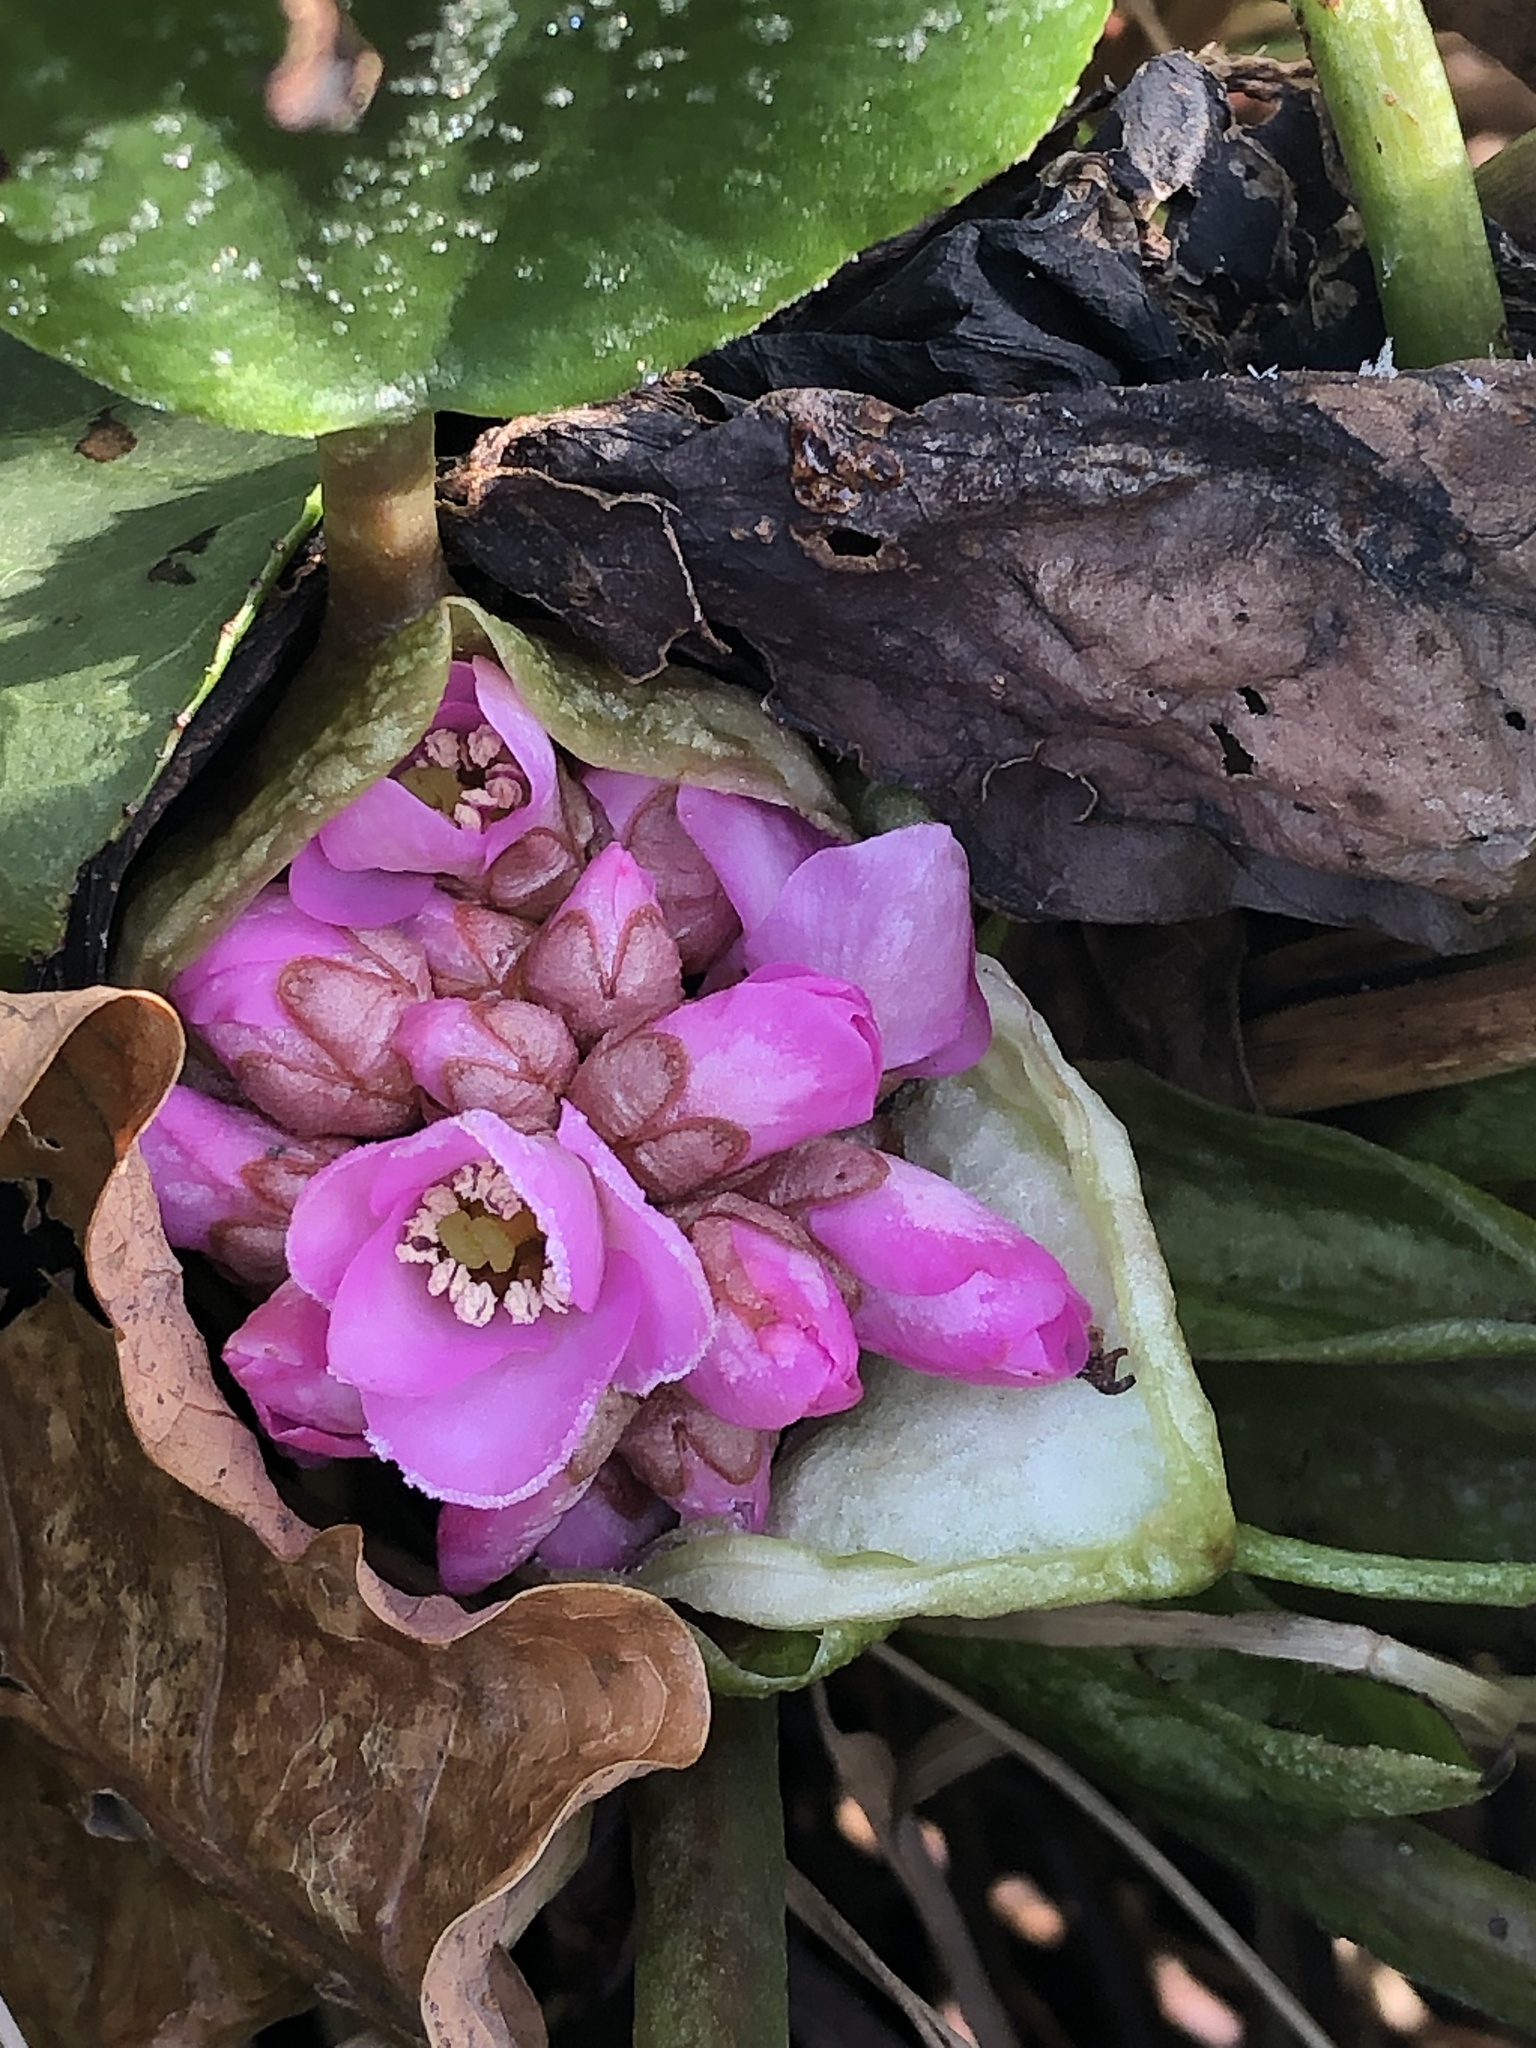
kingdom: Plantae
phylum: Tracheophyta
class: Magnoliopsida
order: Saxifragales
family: Saxifragaceae
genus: Bergenia
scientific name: Bergenia crassifolia
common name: Elephant-ears
